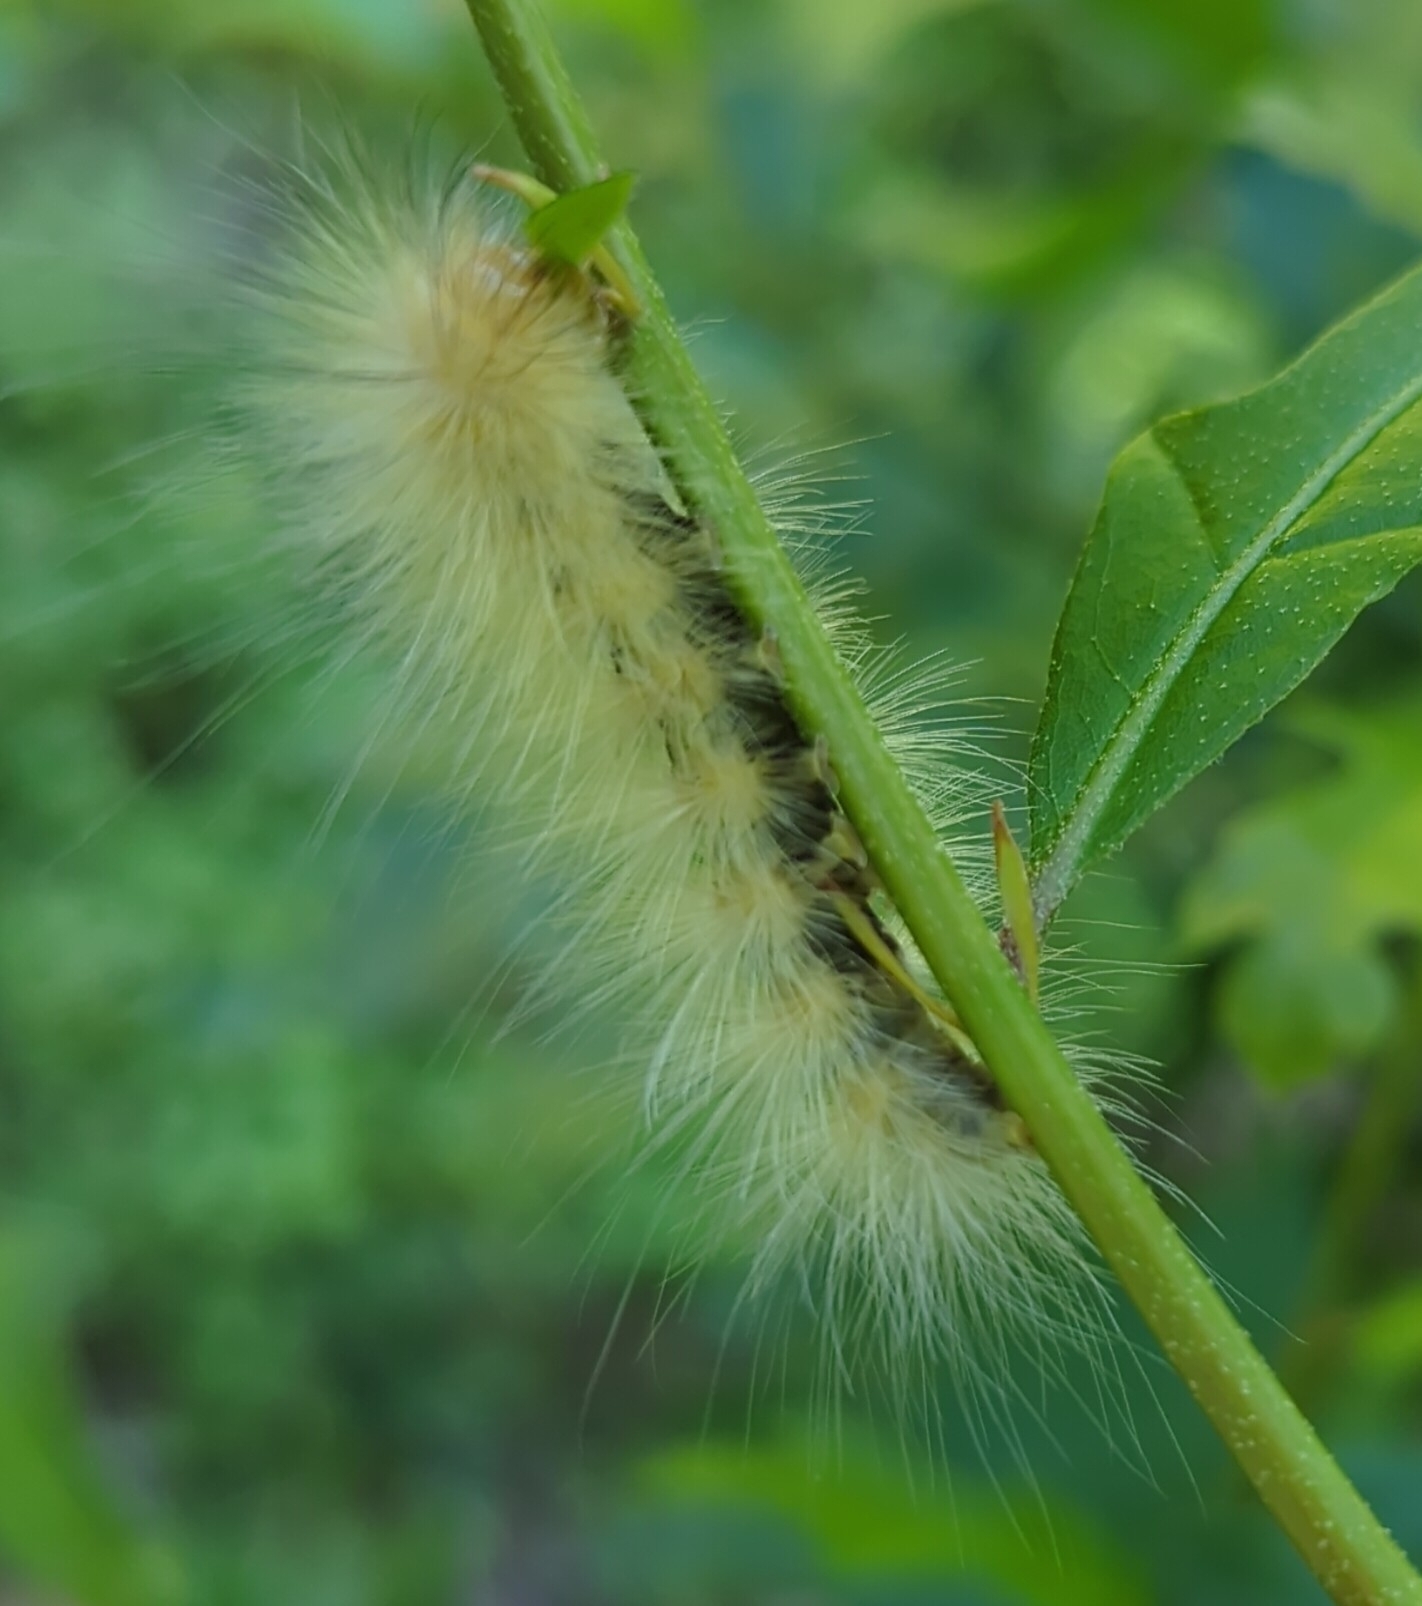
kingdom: Animalia
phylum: Arthropoda
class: Insecta
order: Lepidoptera
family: Erebidae
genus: Spilosoma
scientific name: Spilosoma virginica
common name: Virginia tiger moth
